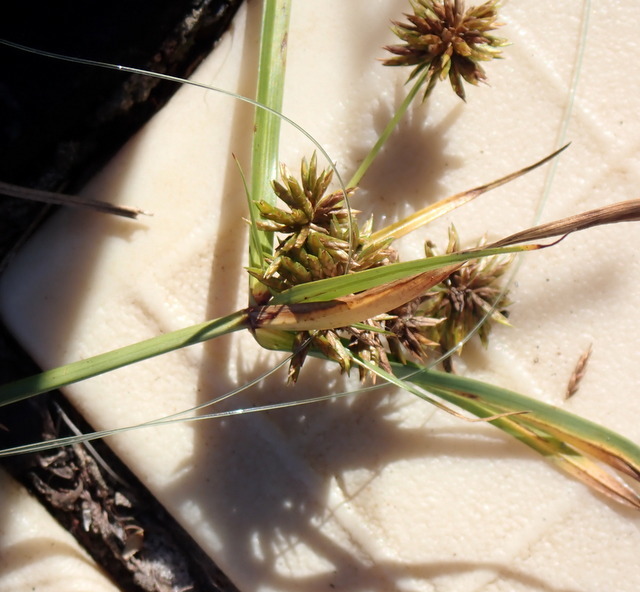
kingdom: Plantae
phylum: Tracheophyta
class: Liliopsida
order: Poales
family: Cyperaceae
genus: Cyperus
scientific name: Cyperus croceus
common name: Baldwin's flatsedge
